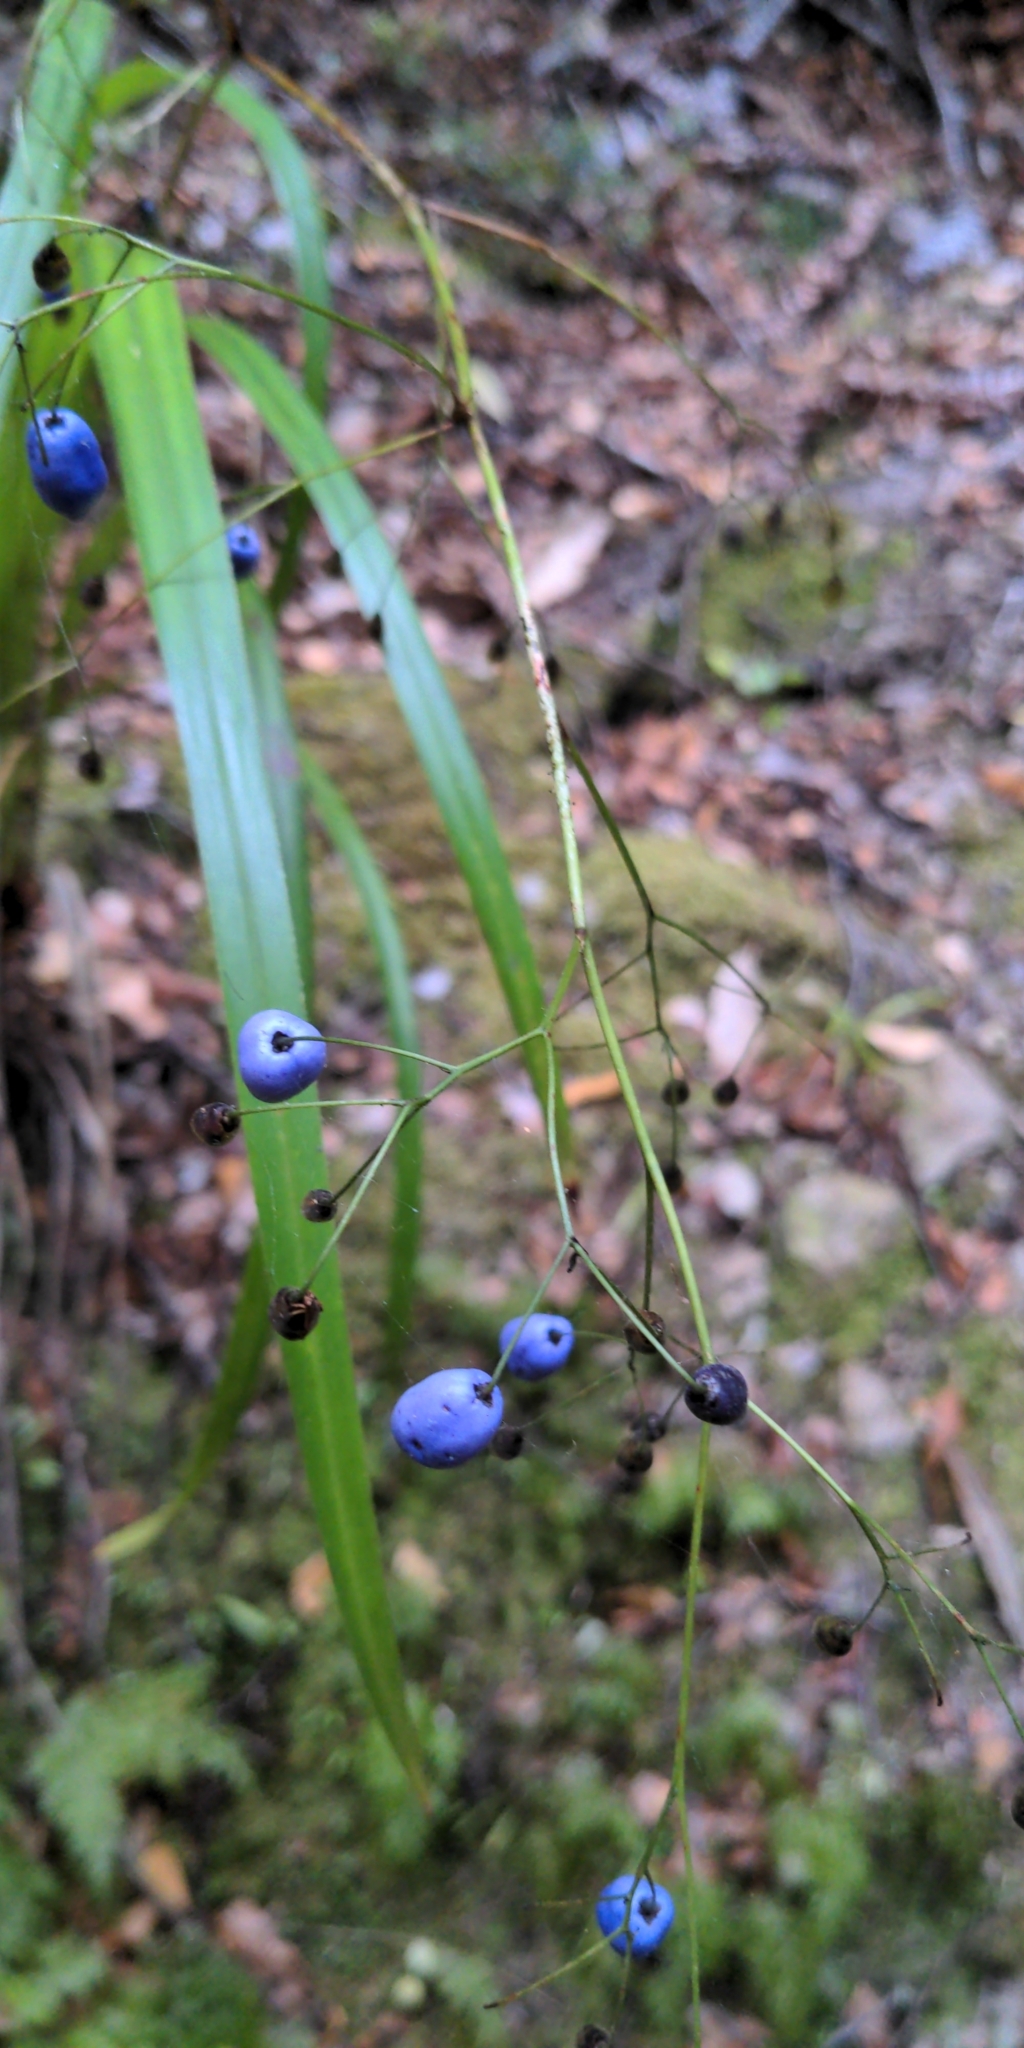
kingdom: Plantae
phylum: Tracheophyta
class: Liliopsida
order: Asparagales
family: Asphodelaceae
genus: Dianella
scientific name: Dianella nigra
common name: New zealand-blueberry
